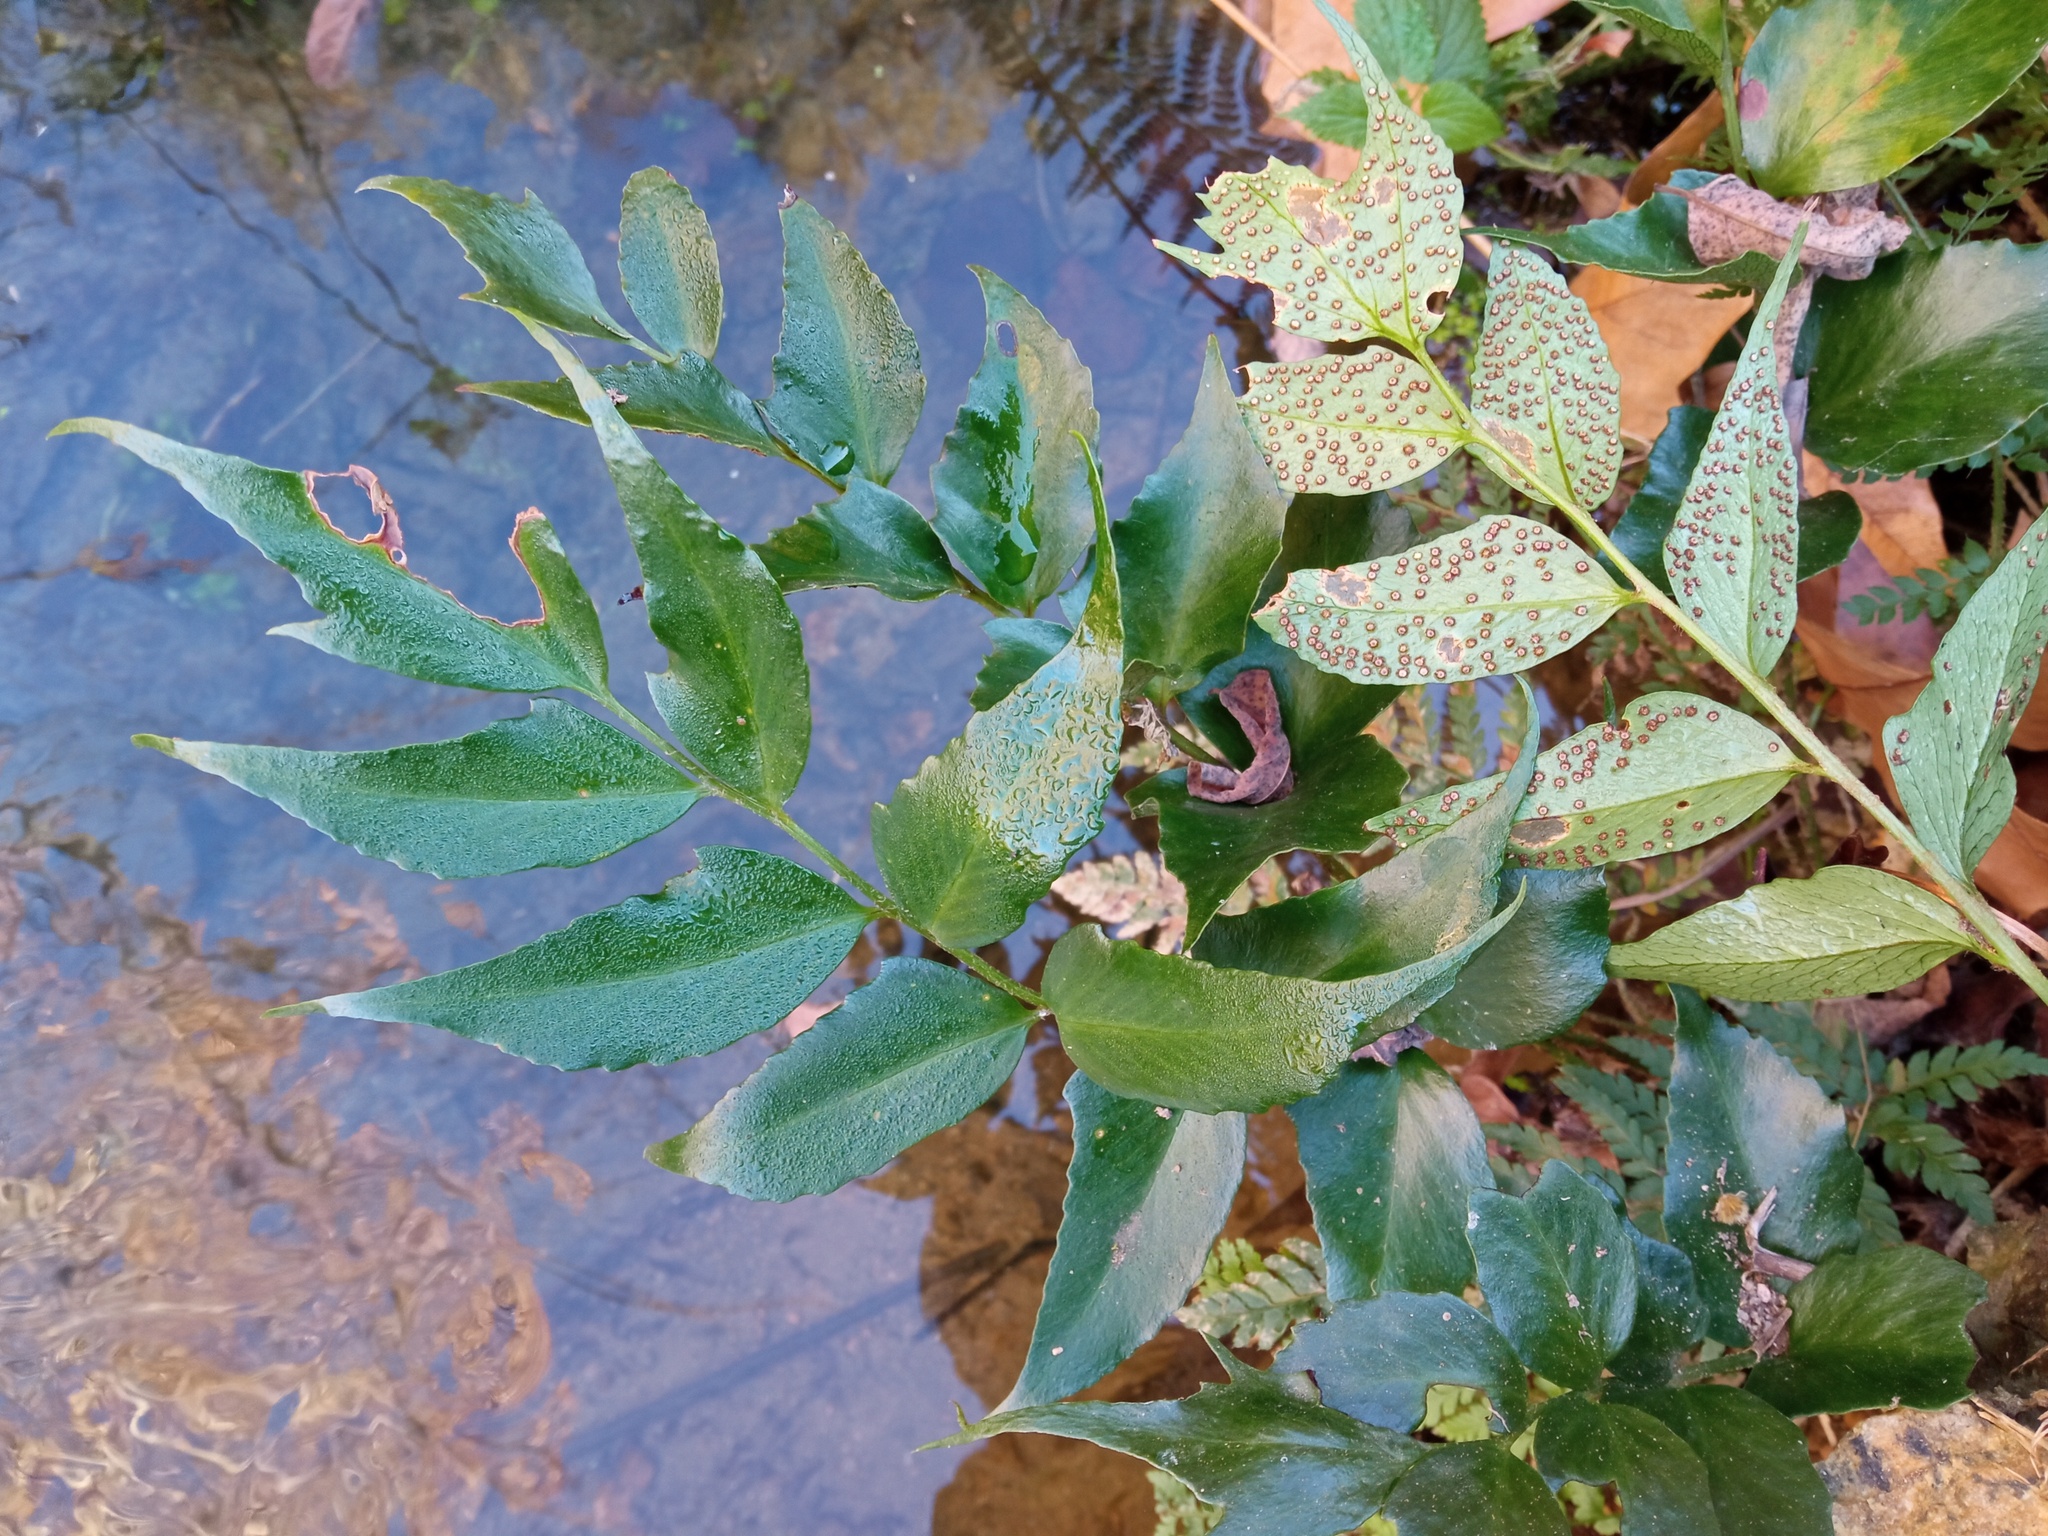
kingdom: Plantae
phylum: Tracheophyta
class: Polypodiopsida
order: Polypodiales
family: Dryopteridaceae
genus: Cyrtomium
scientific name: Cyrtomium falcatum
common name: House holly-fern
